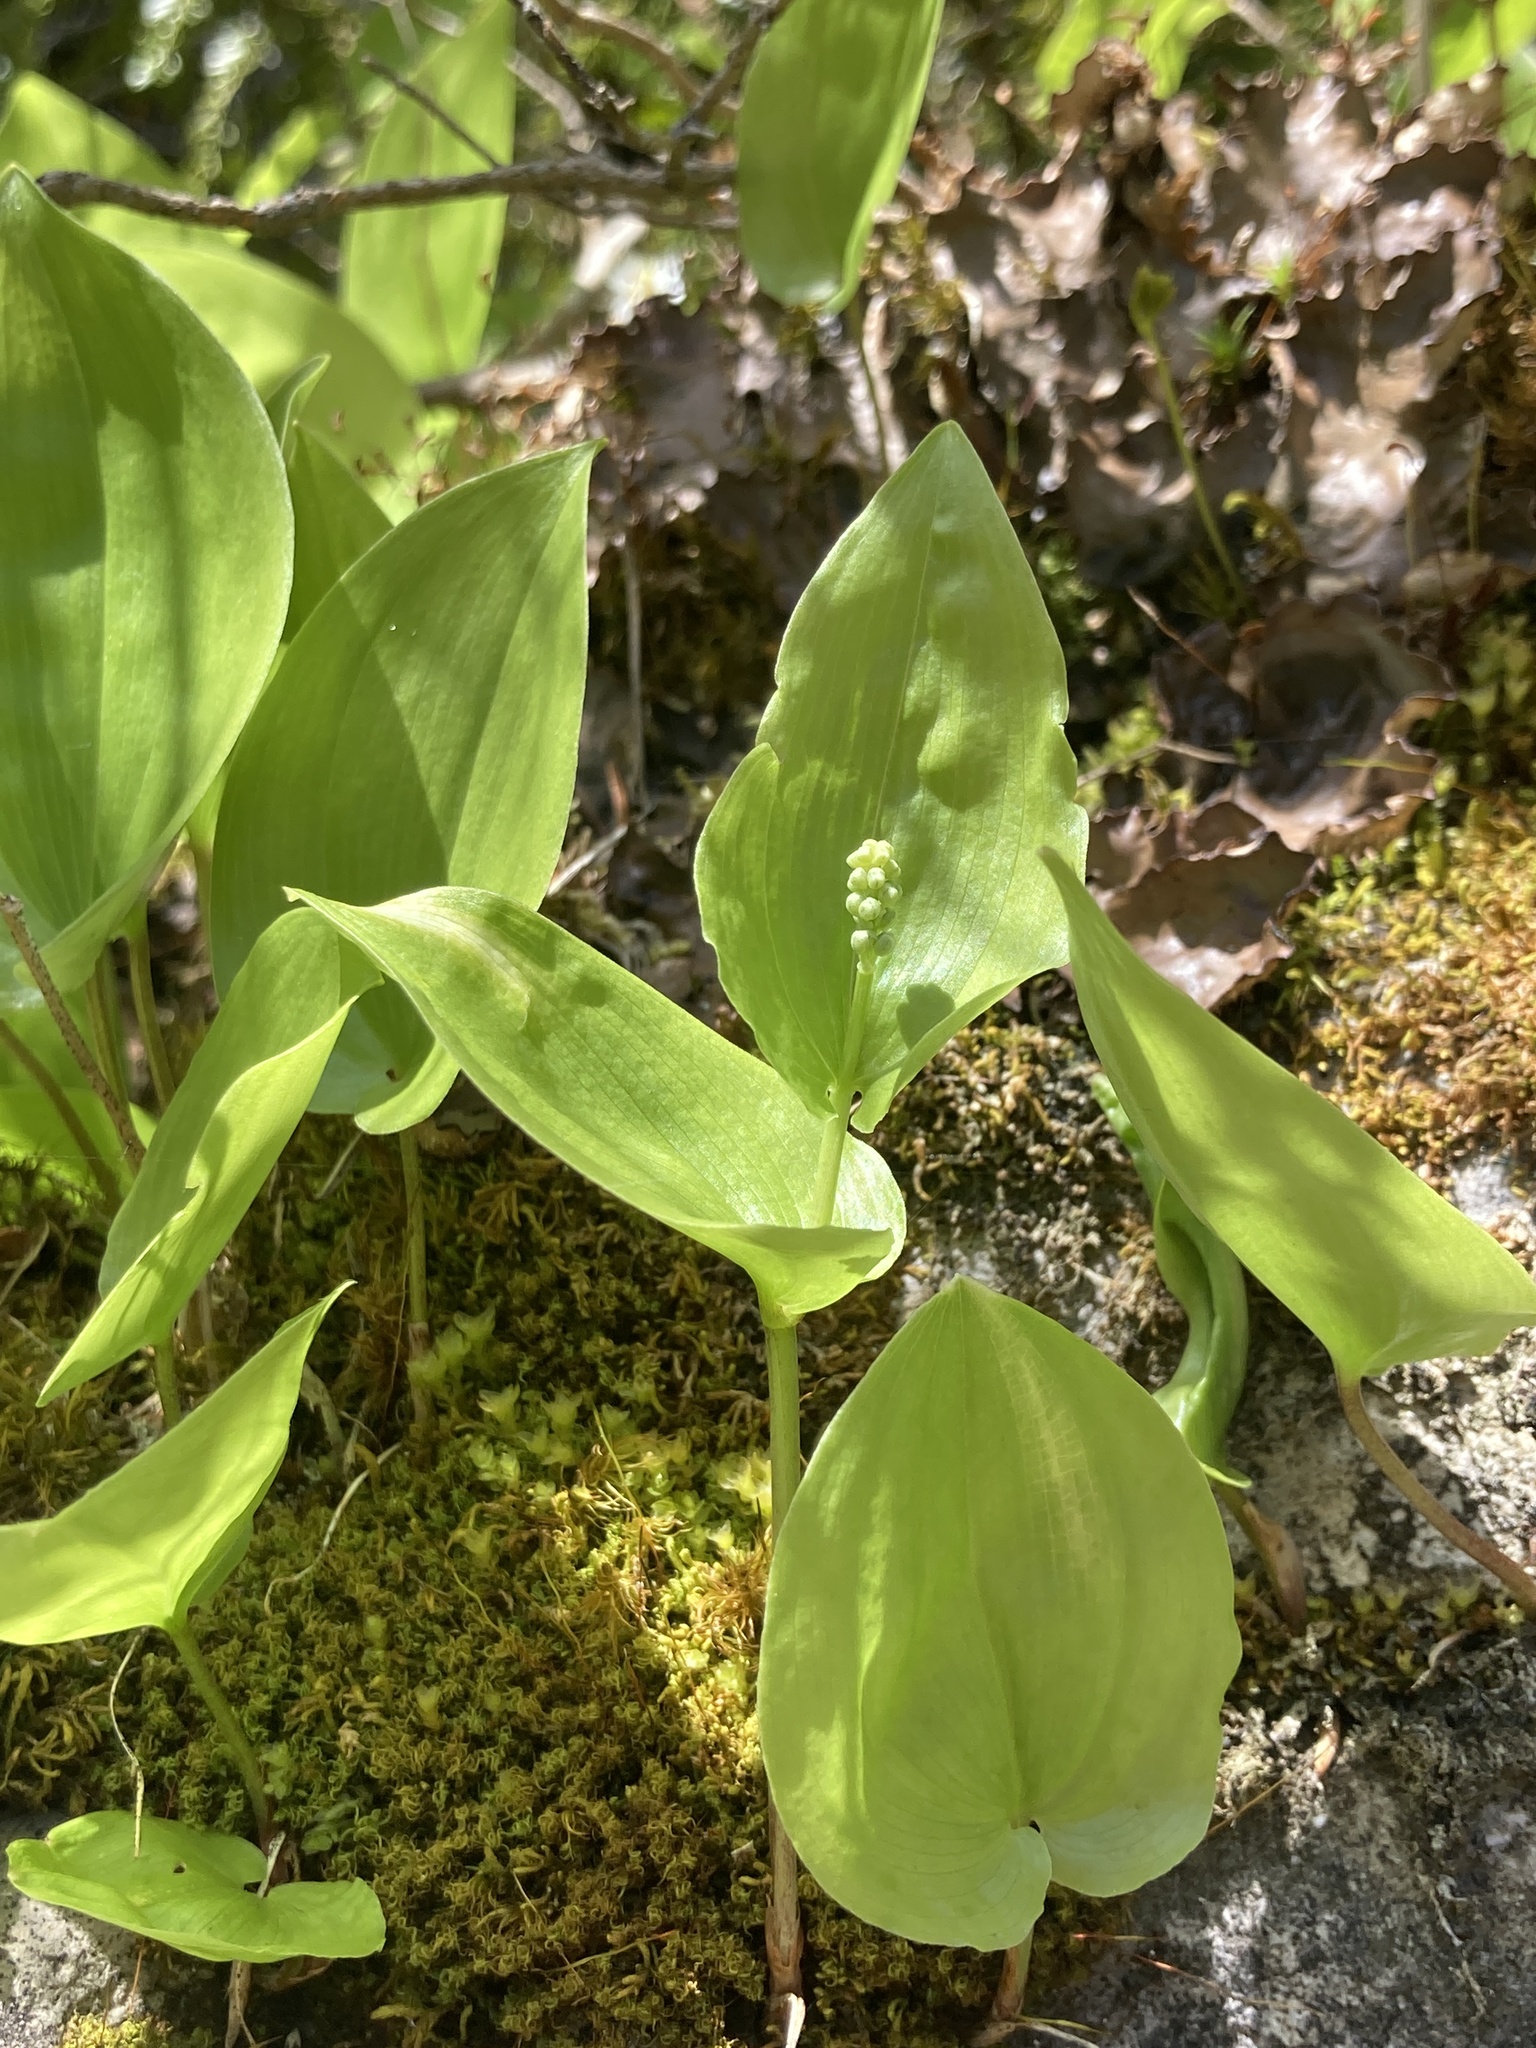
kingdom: Plantae
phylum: Tracheophyta
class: Liliopsida
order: Asparagales
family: Asparagaceae
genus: Maianthemum
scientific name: Maianthemum canadense
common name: False lily-of-the-valley
